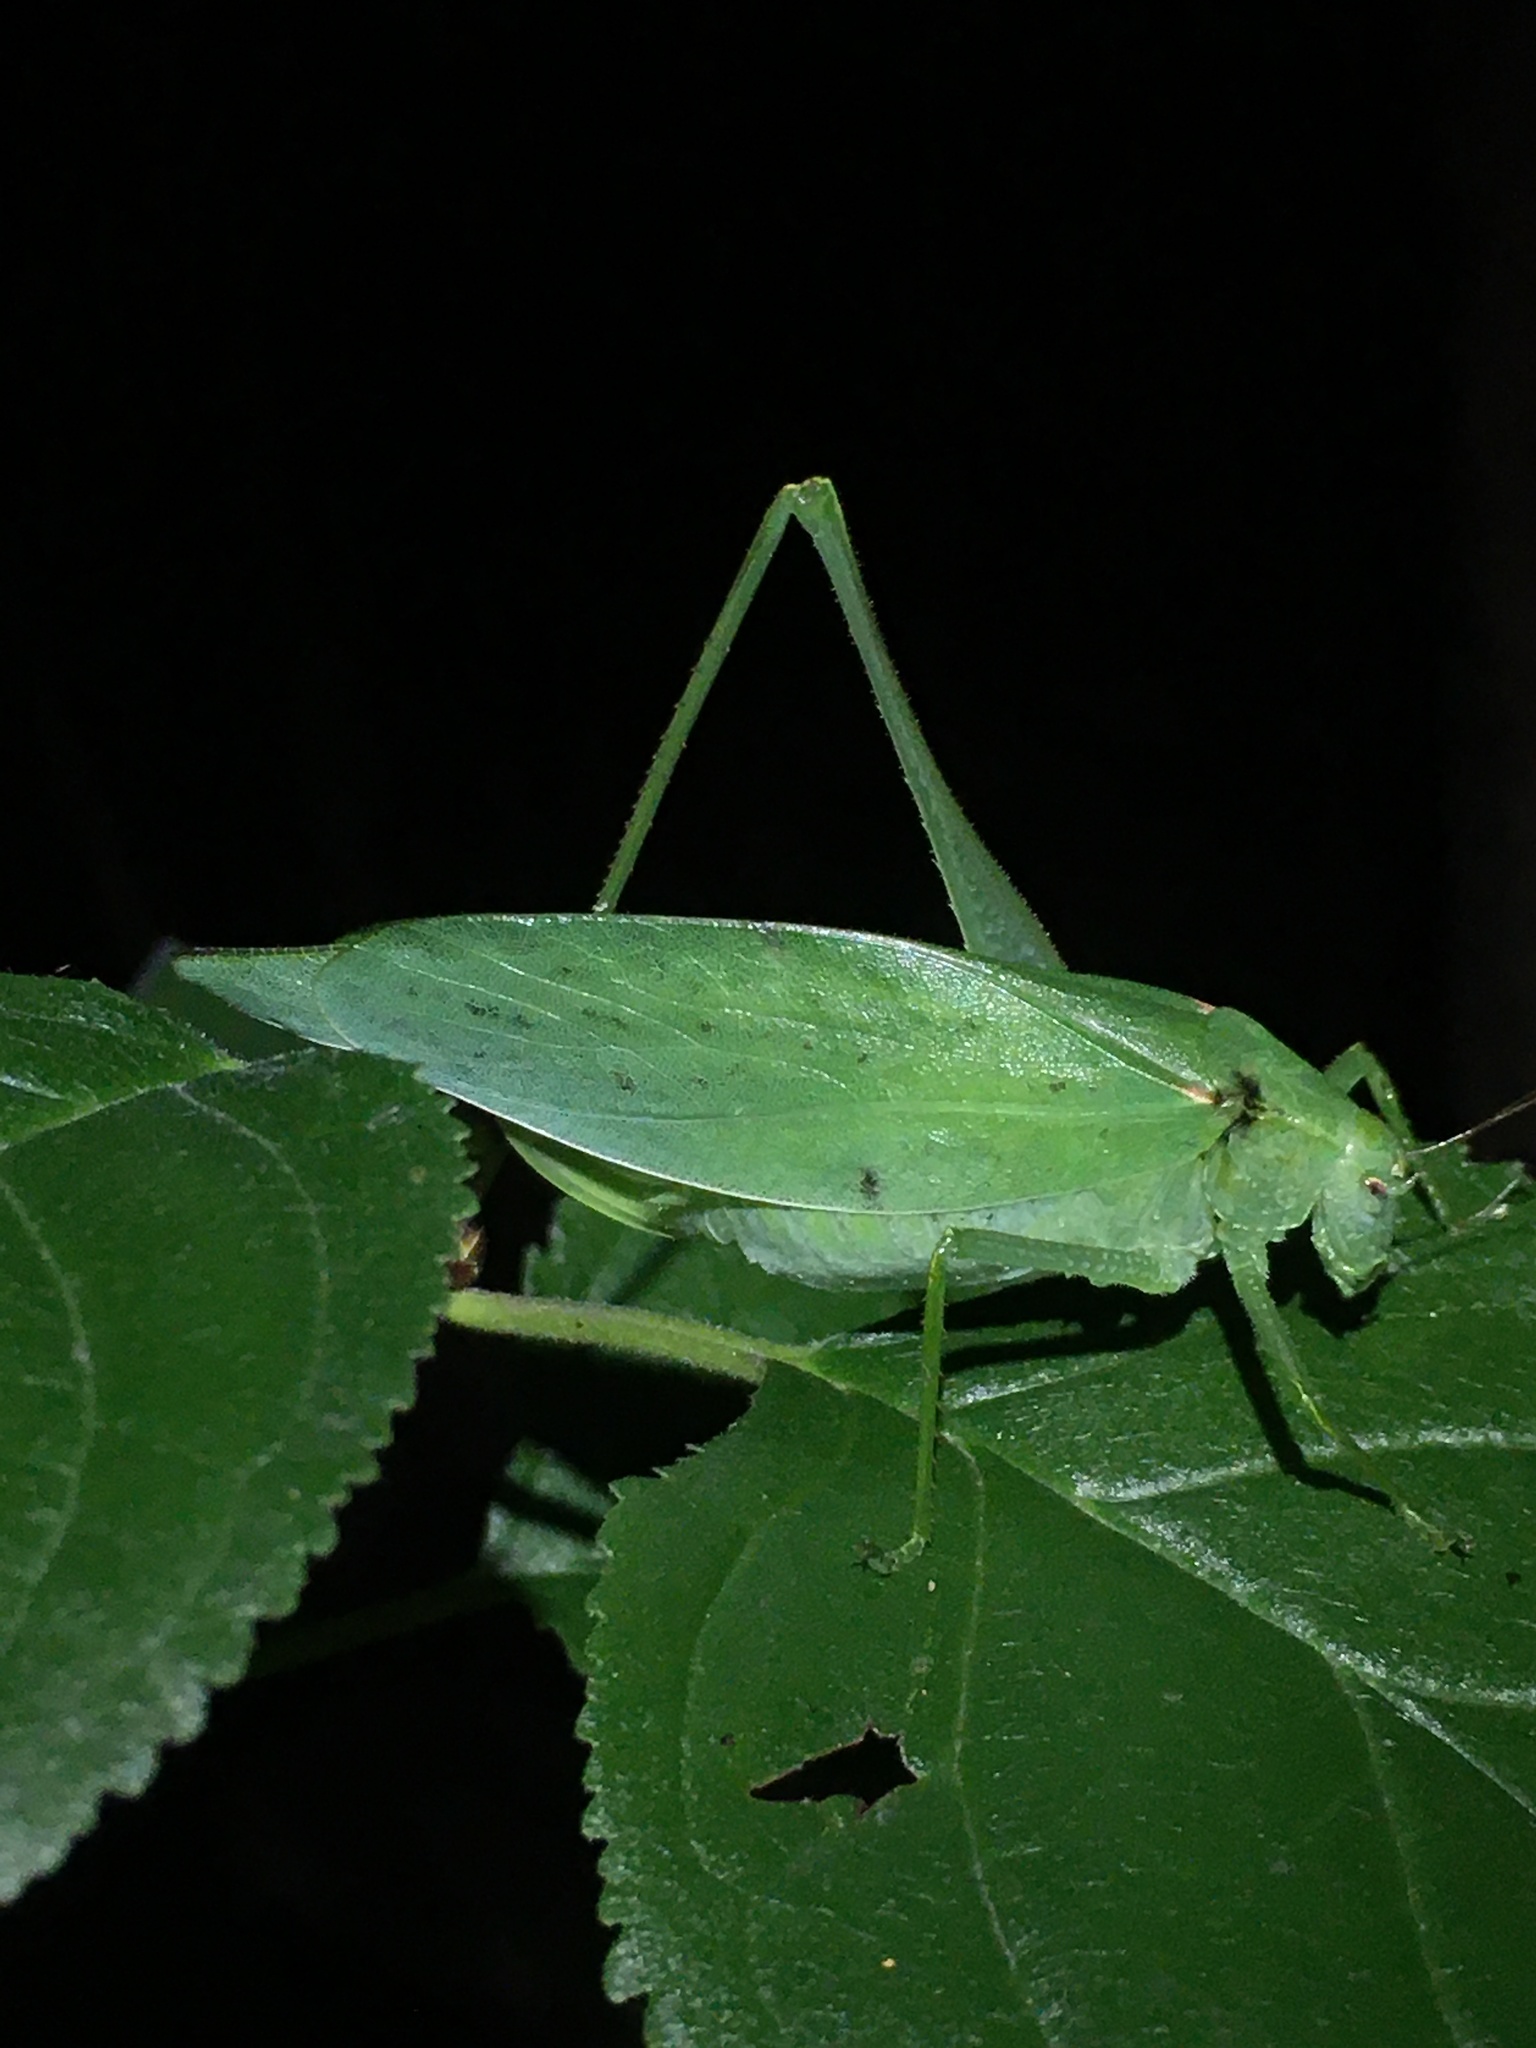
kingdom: Animalia
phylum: Arthropoda
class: Insecta
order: Orthoptera
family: Tettigoniidae
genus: Amblycorypha
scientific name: Amblycorypha oblongifolia
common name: Oblong-winged katydid
